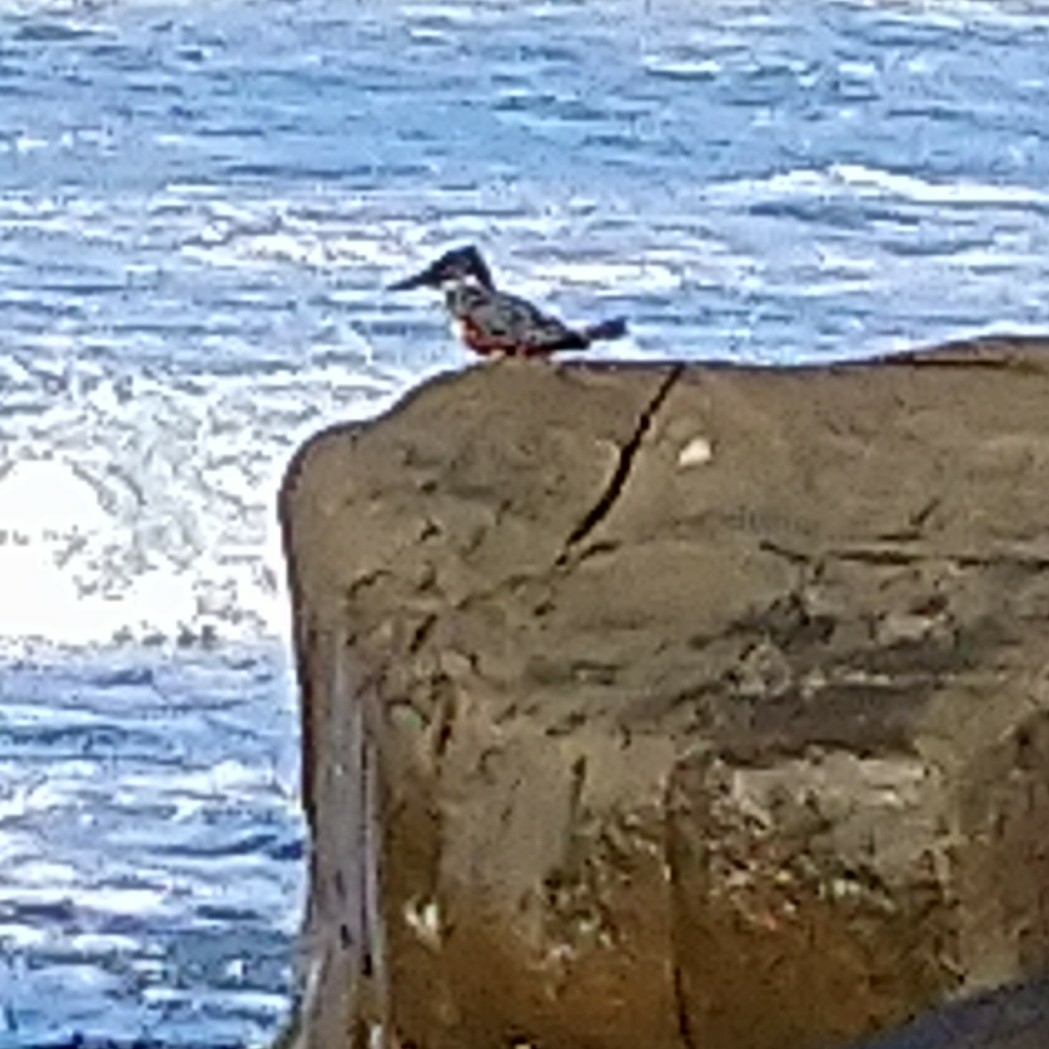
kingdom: Animalia
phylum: Chordata
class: Aves
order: Coraciiformes
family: Alcedinidae
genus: Megaceryle
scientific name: Megaceryle maxima
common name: Giant kingfisher
